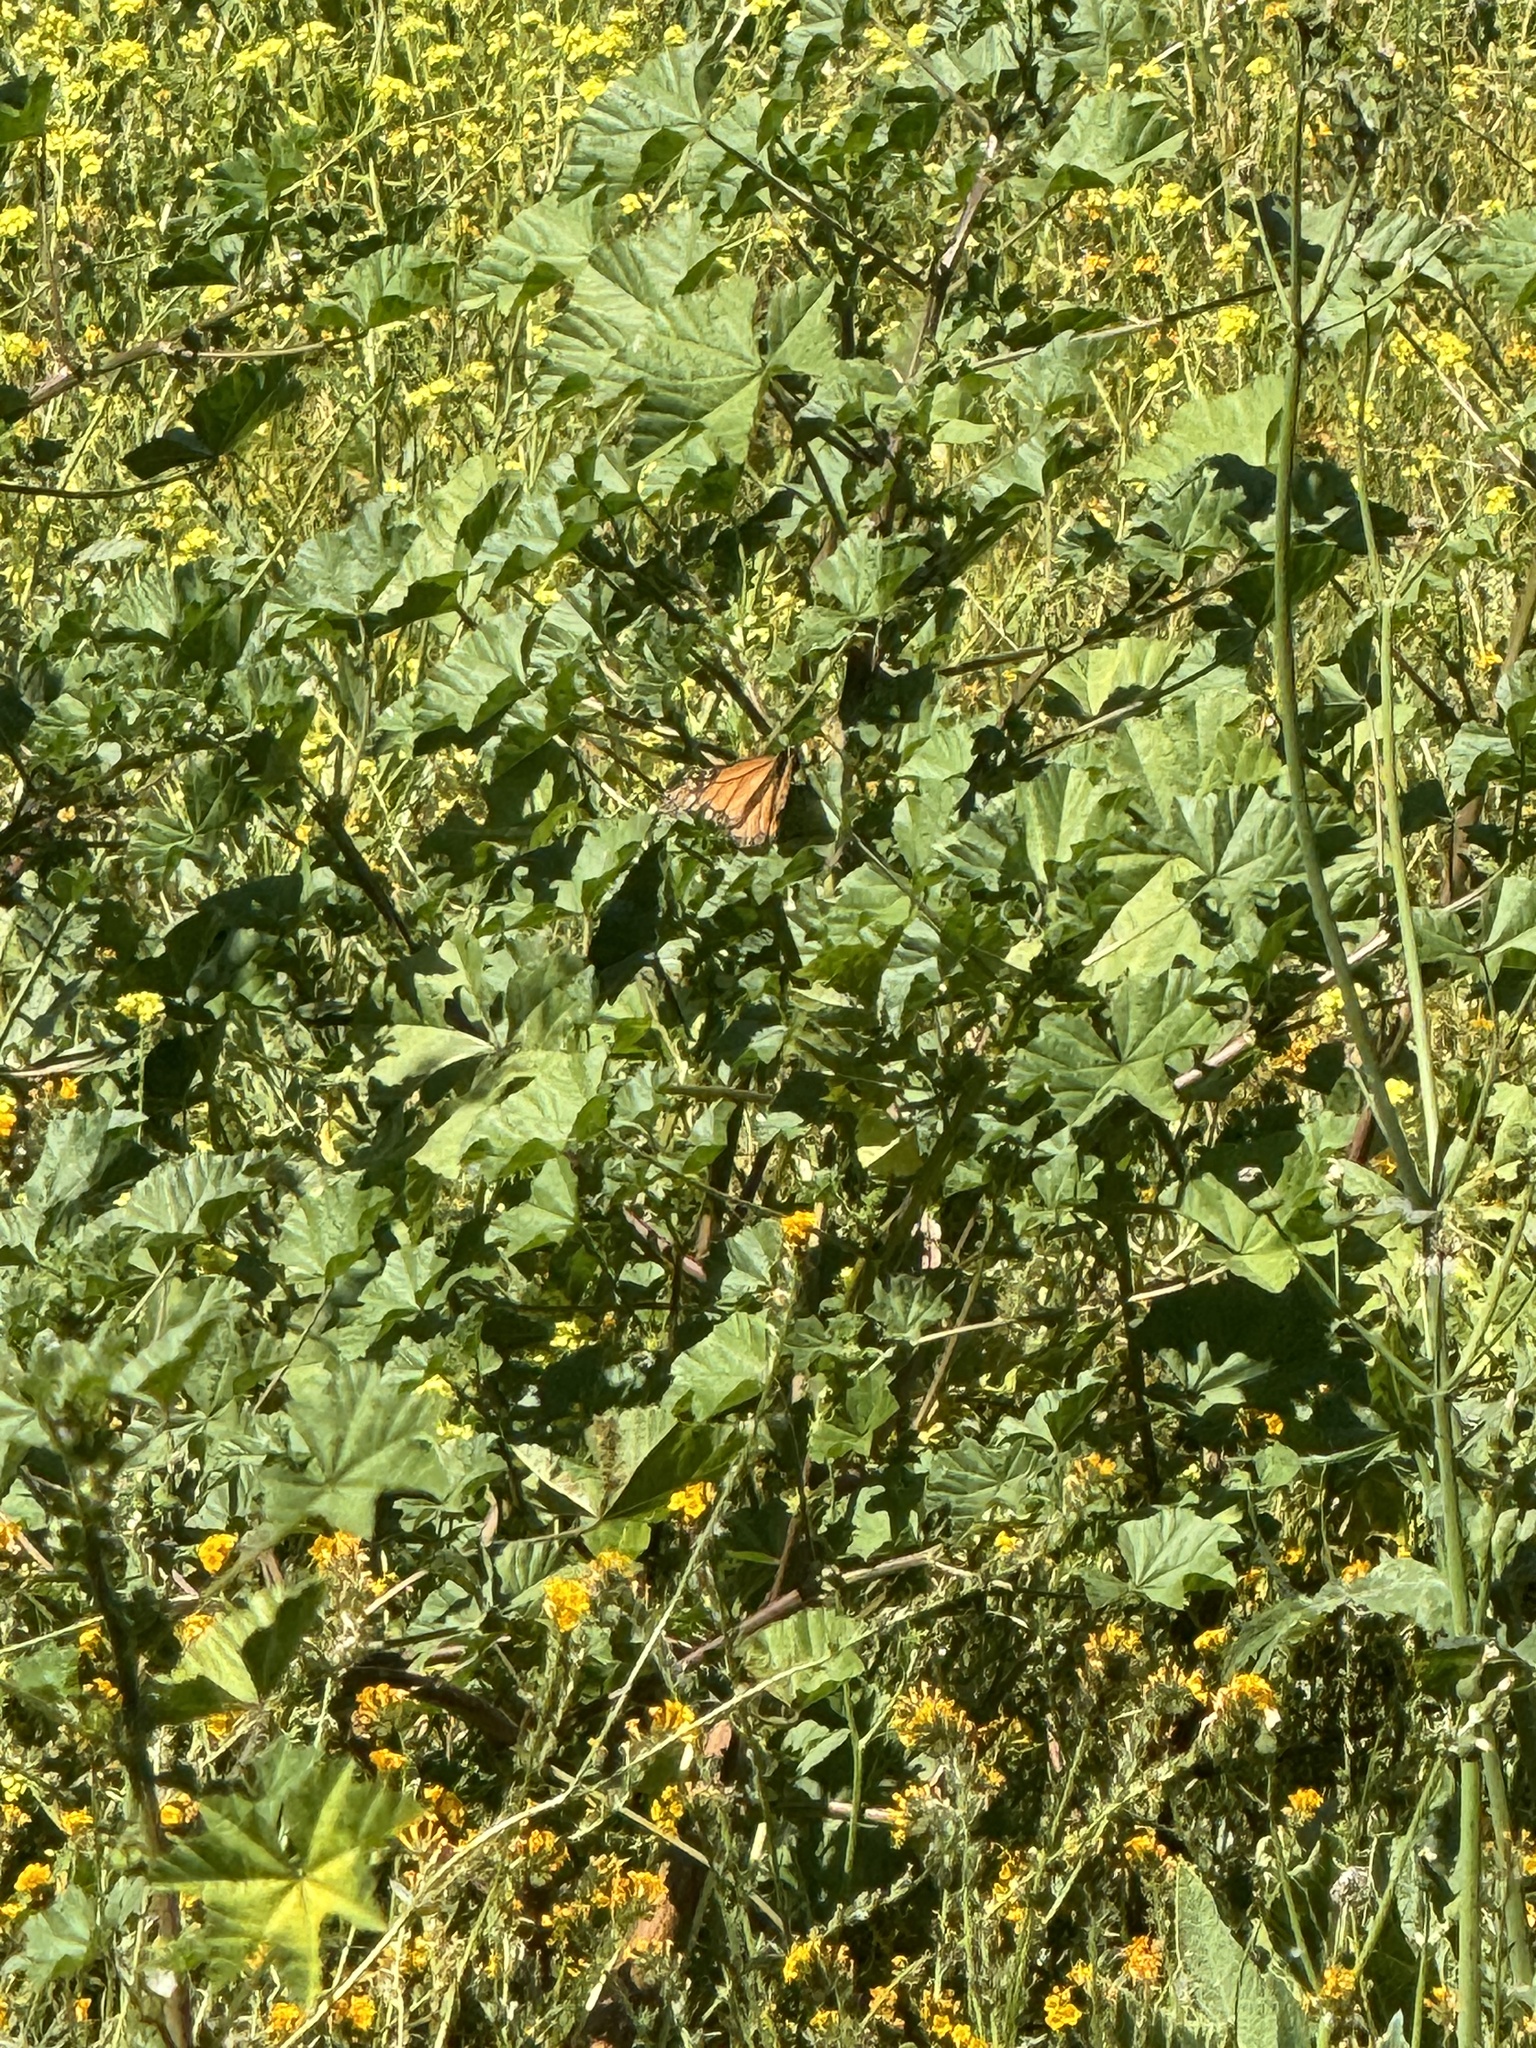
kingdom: Animalia
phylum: Arthropoda
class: Insecta
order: Lepidoptera
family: Nymphalidae
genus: Danaus
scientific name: Danaus plexippus
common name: Monarch
